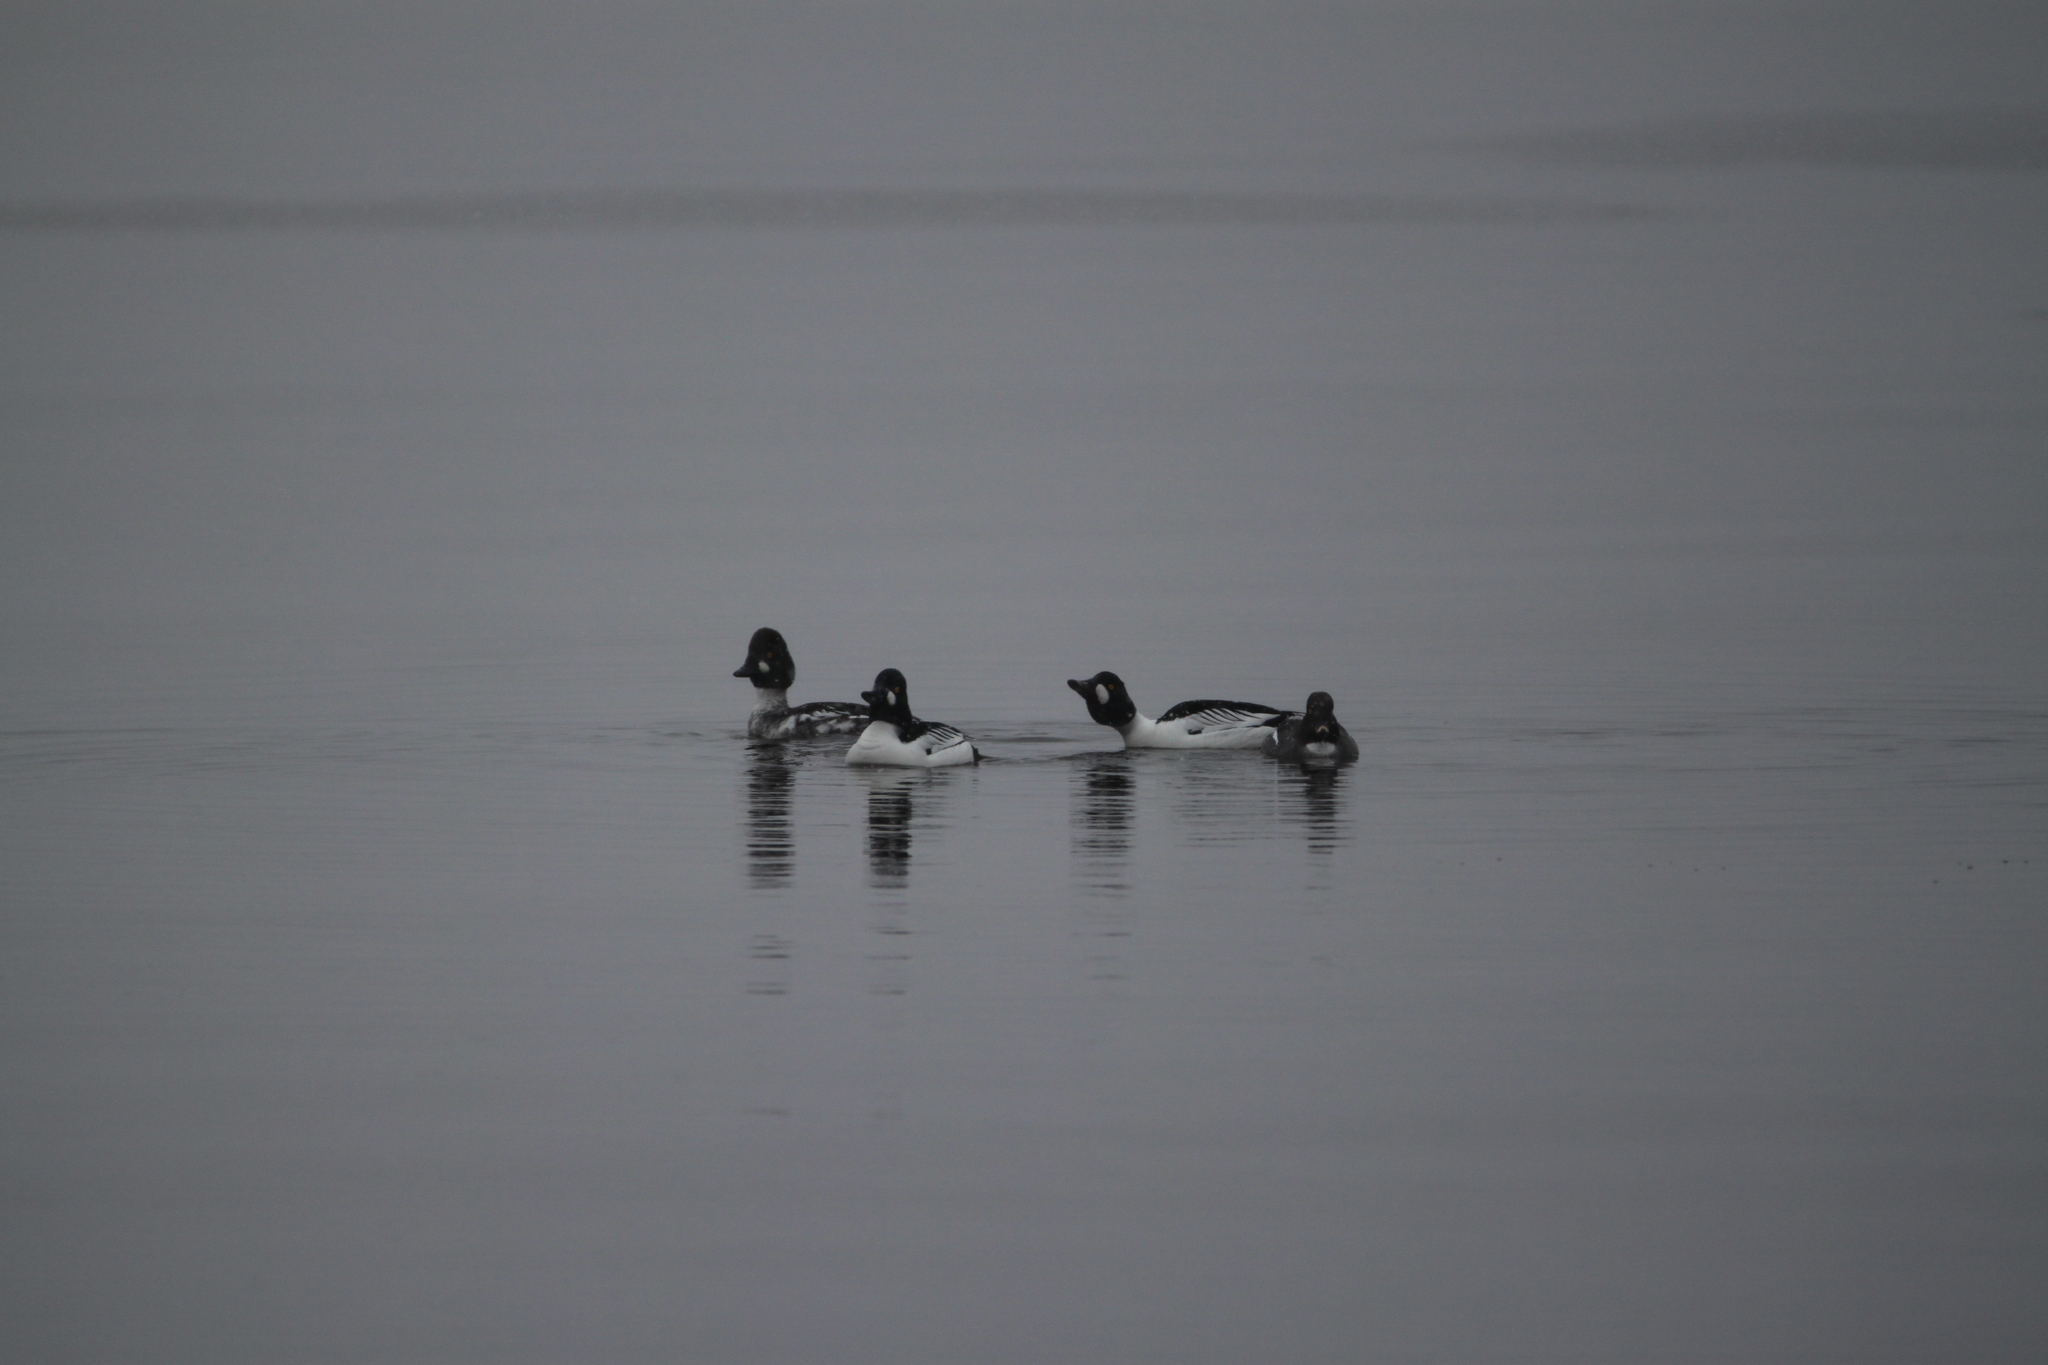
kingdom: Animalia
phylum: Chordata
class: Aves
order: Anseriformes
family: Anatidae
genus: Bucephala
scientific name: Bucephala clangula
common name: Common goldeneye
